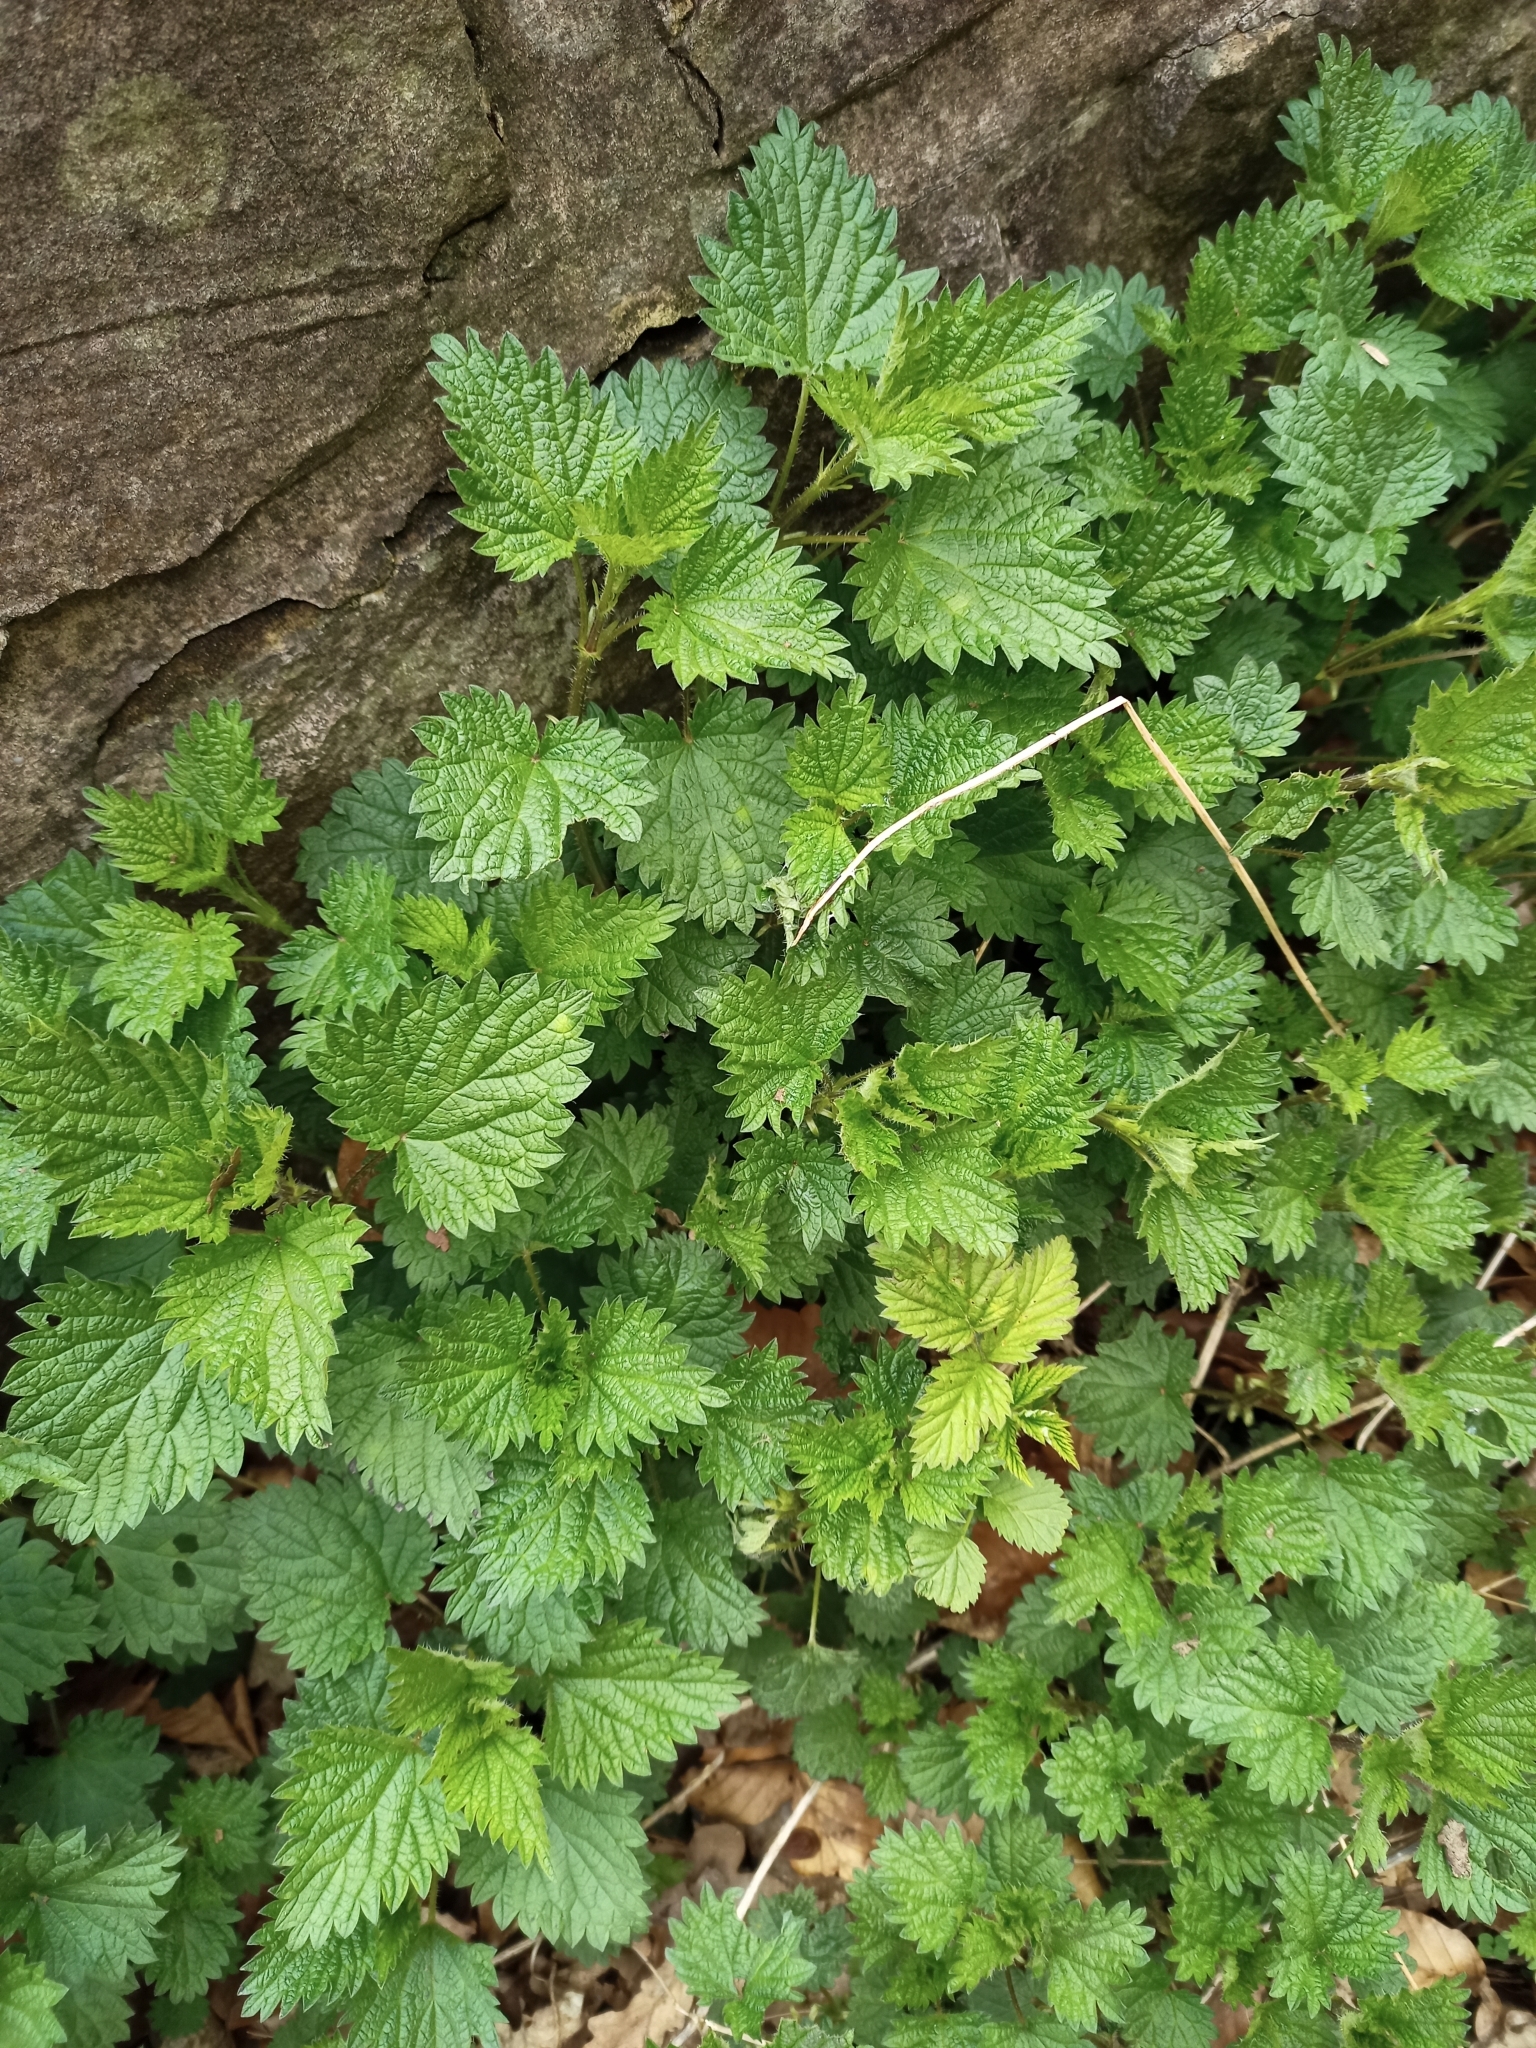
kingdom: Plantae
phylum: Tracheophyta
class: Magnoliopsida
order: Rosales
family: Urticaceae
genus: Urtica
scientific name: Urtica dioica
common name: Common nettle
